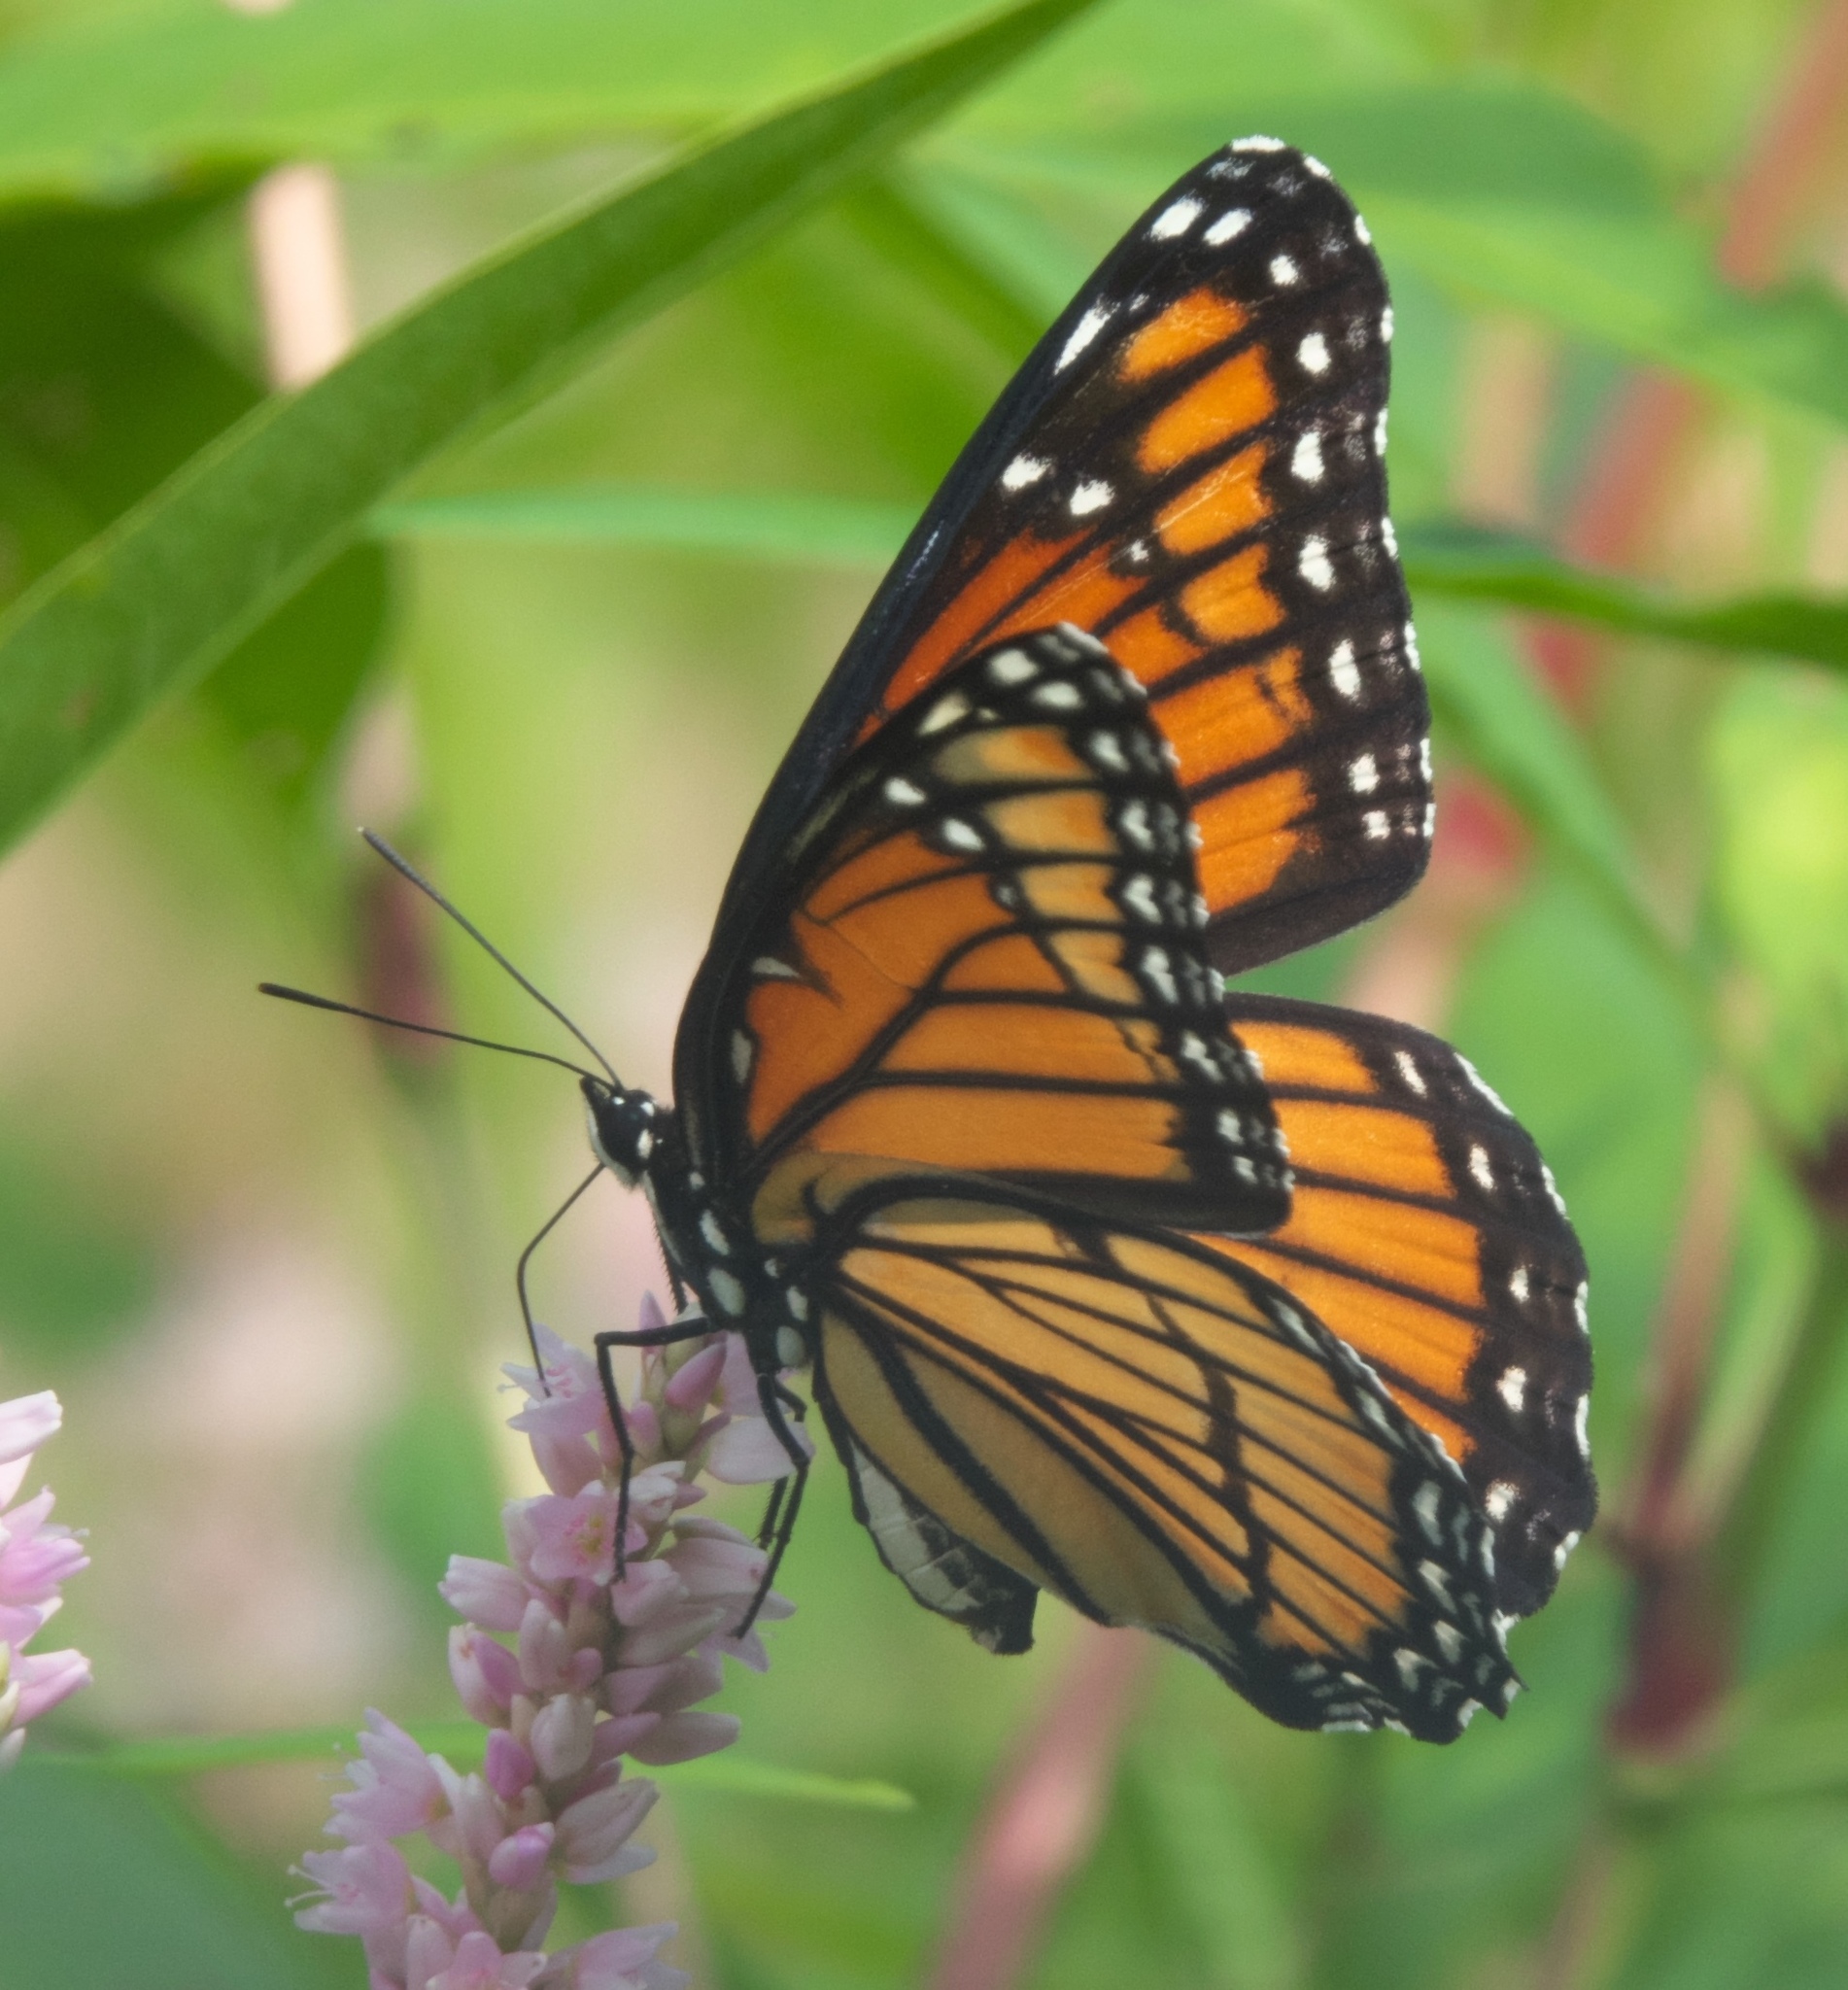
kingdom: Animalia
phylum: Arthropoda
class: Insecta
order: Lepidoptera
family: Nymphalidae
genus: Limenitis
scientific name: Limenitis archippus
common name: Viceroy
